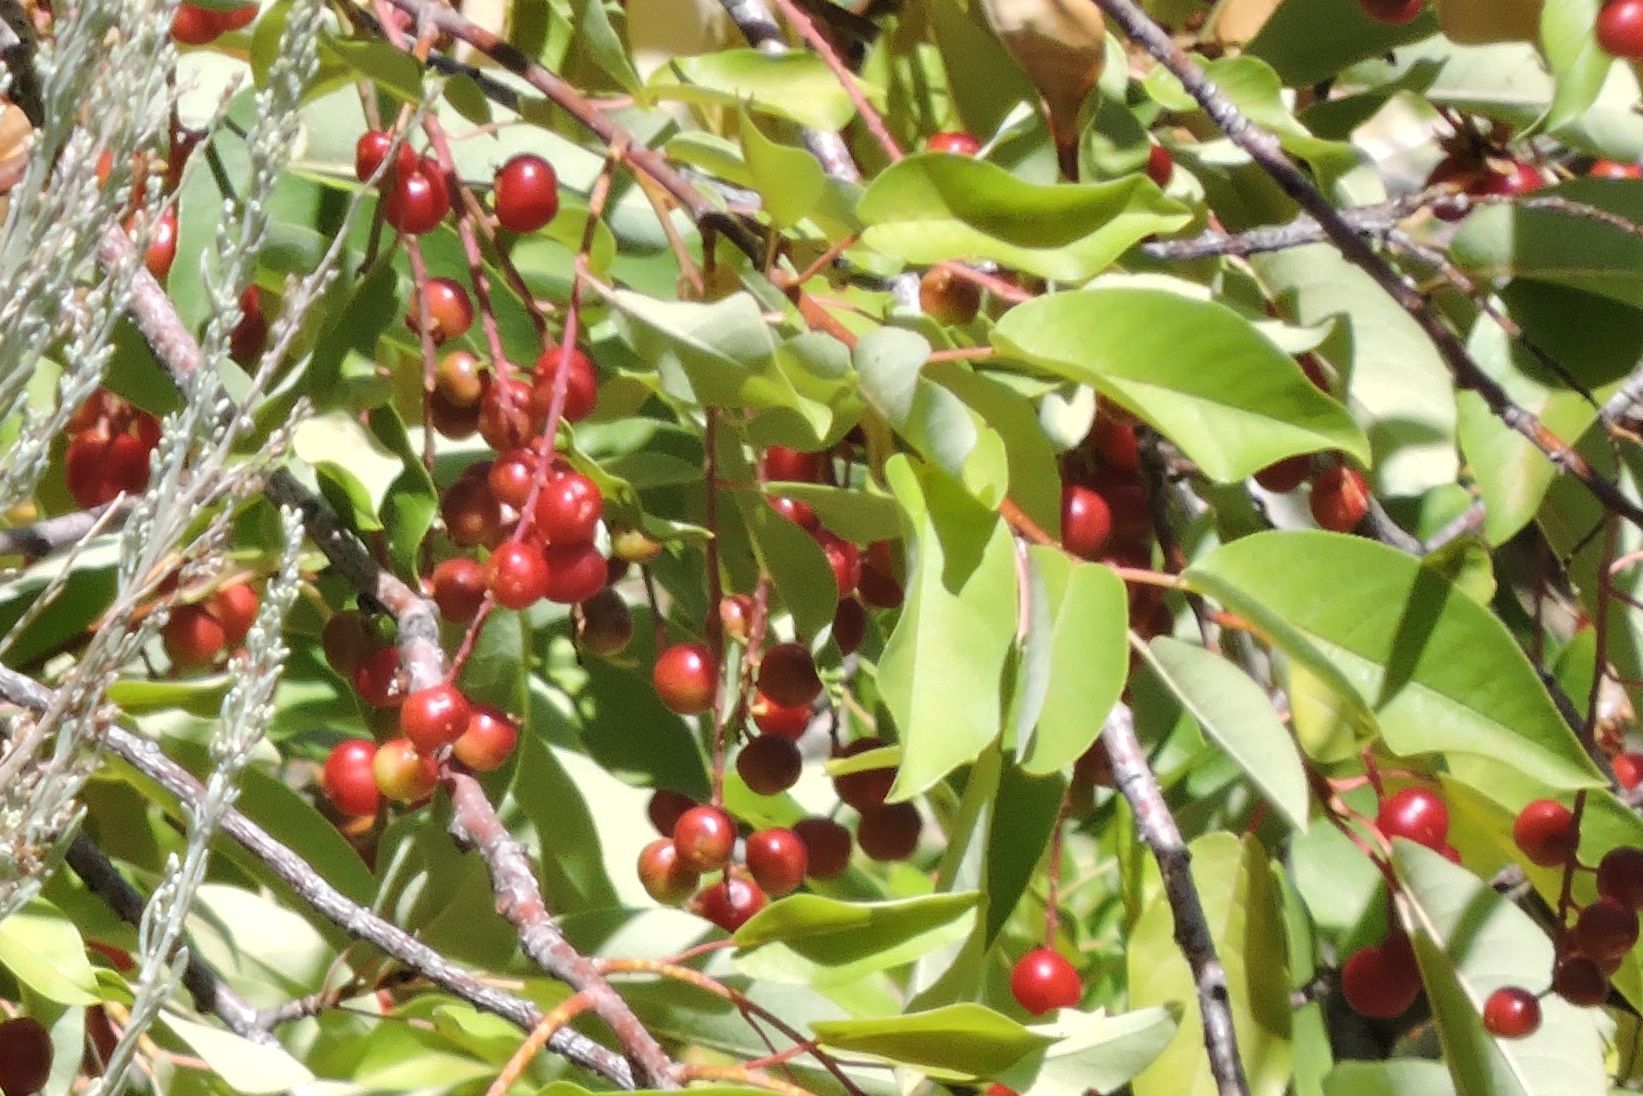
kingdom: Plantae
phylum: Tracheophyta
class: Magnoliopsida
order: Rosales
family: Rosaceae
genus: Prunus
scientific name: Prunus virginiana
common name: Chokecherry
